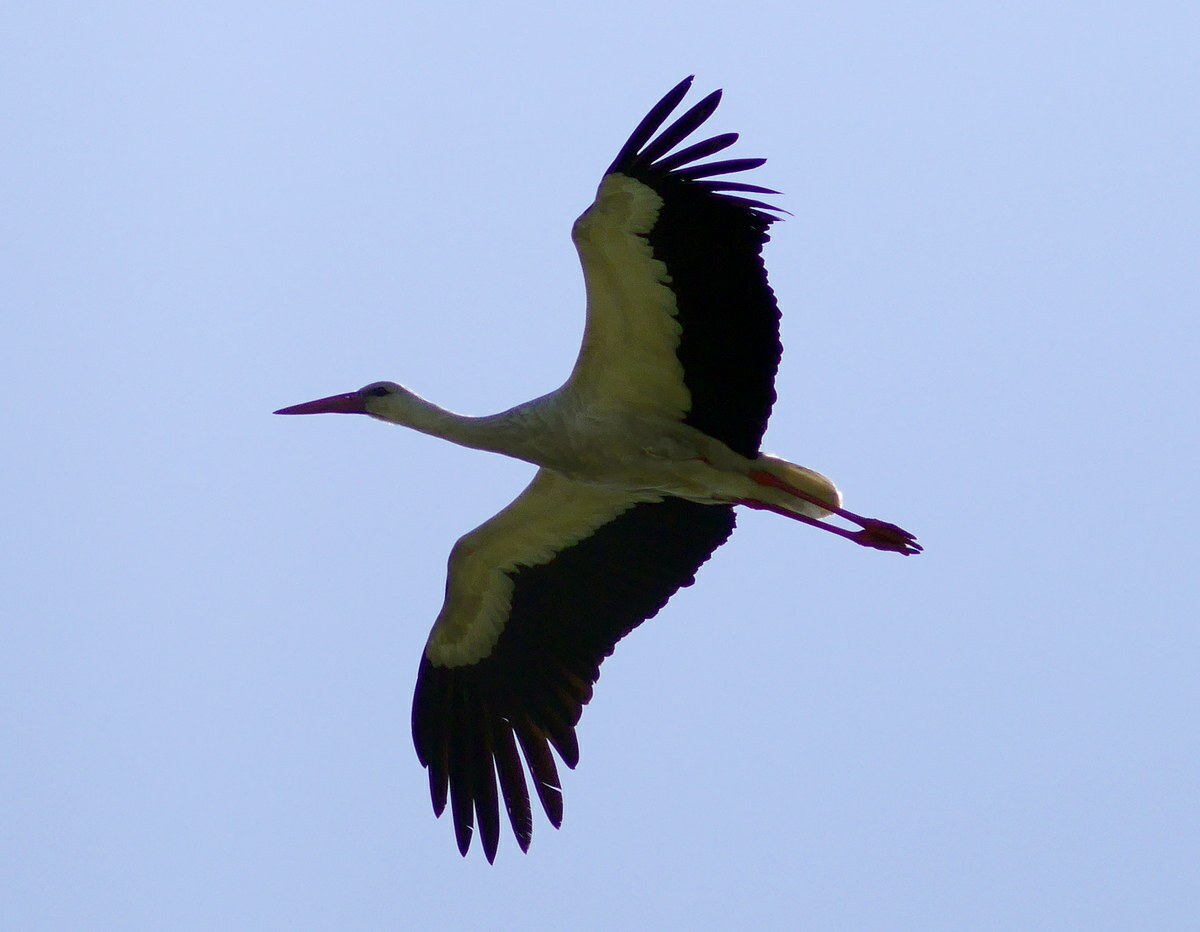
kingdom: Animalia
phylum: Chordata
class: Aves
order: Ciconiiformes
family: Ciconiidae
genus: Ciconia
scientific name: Ciconia ciconia
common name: White stork
